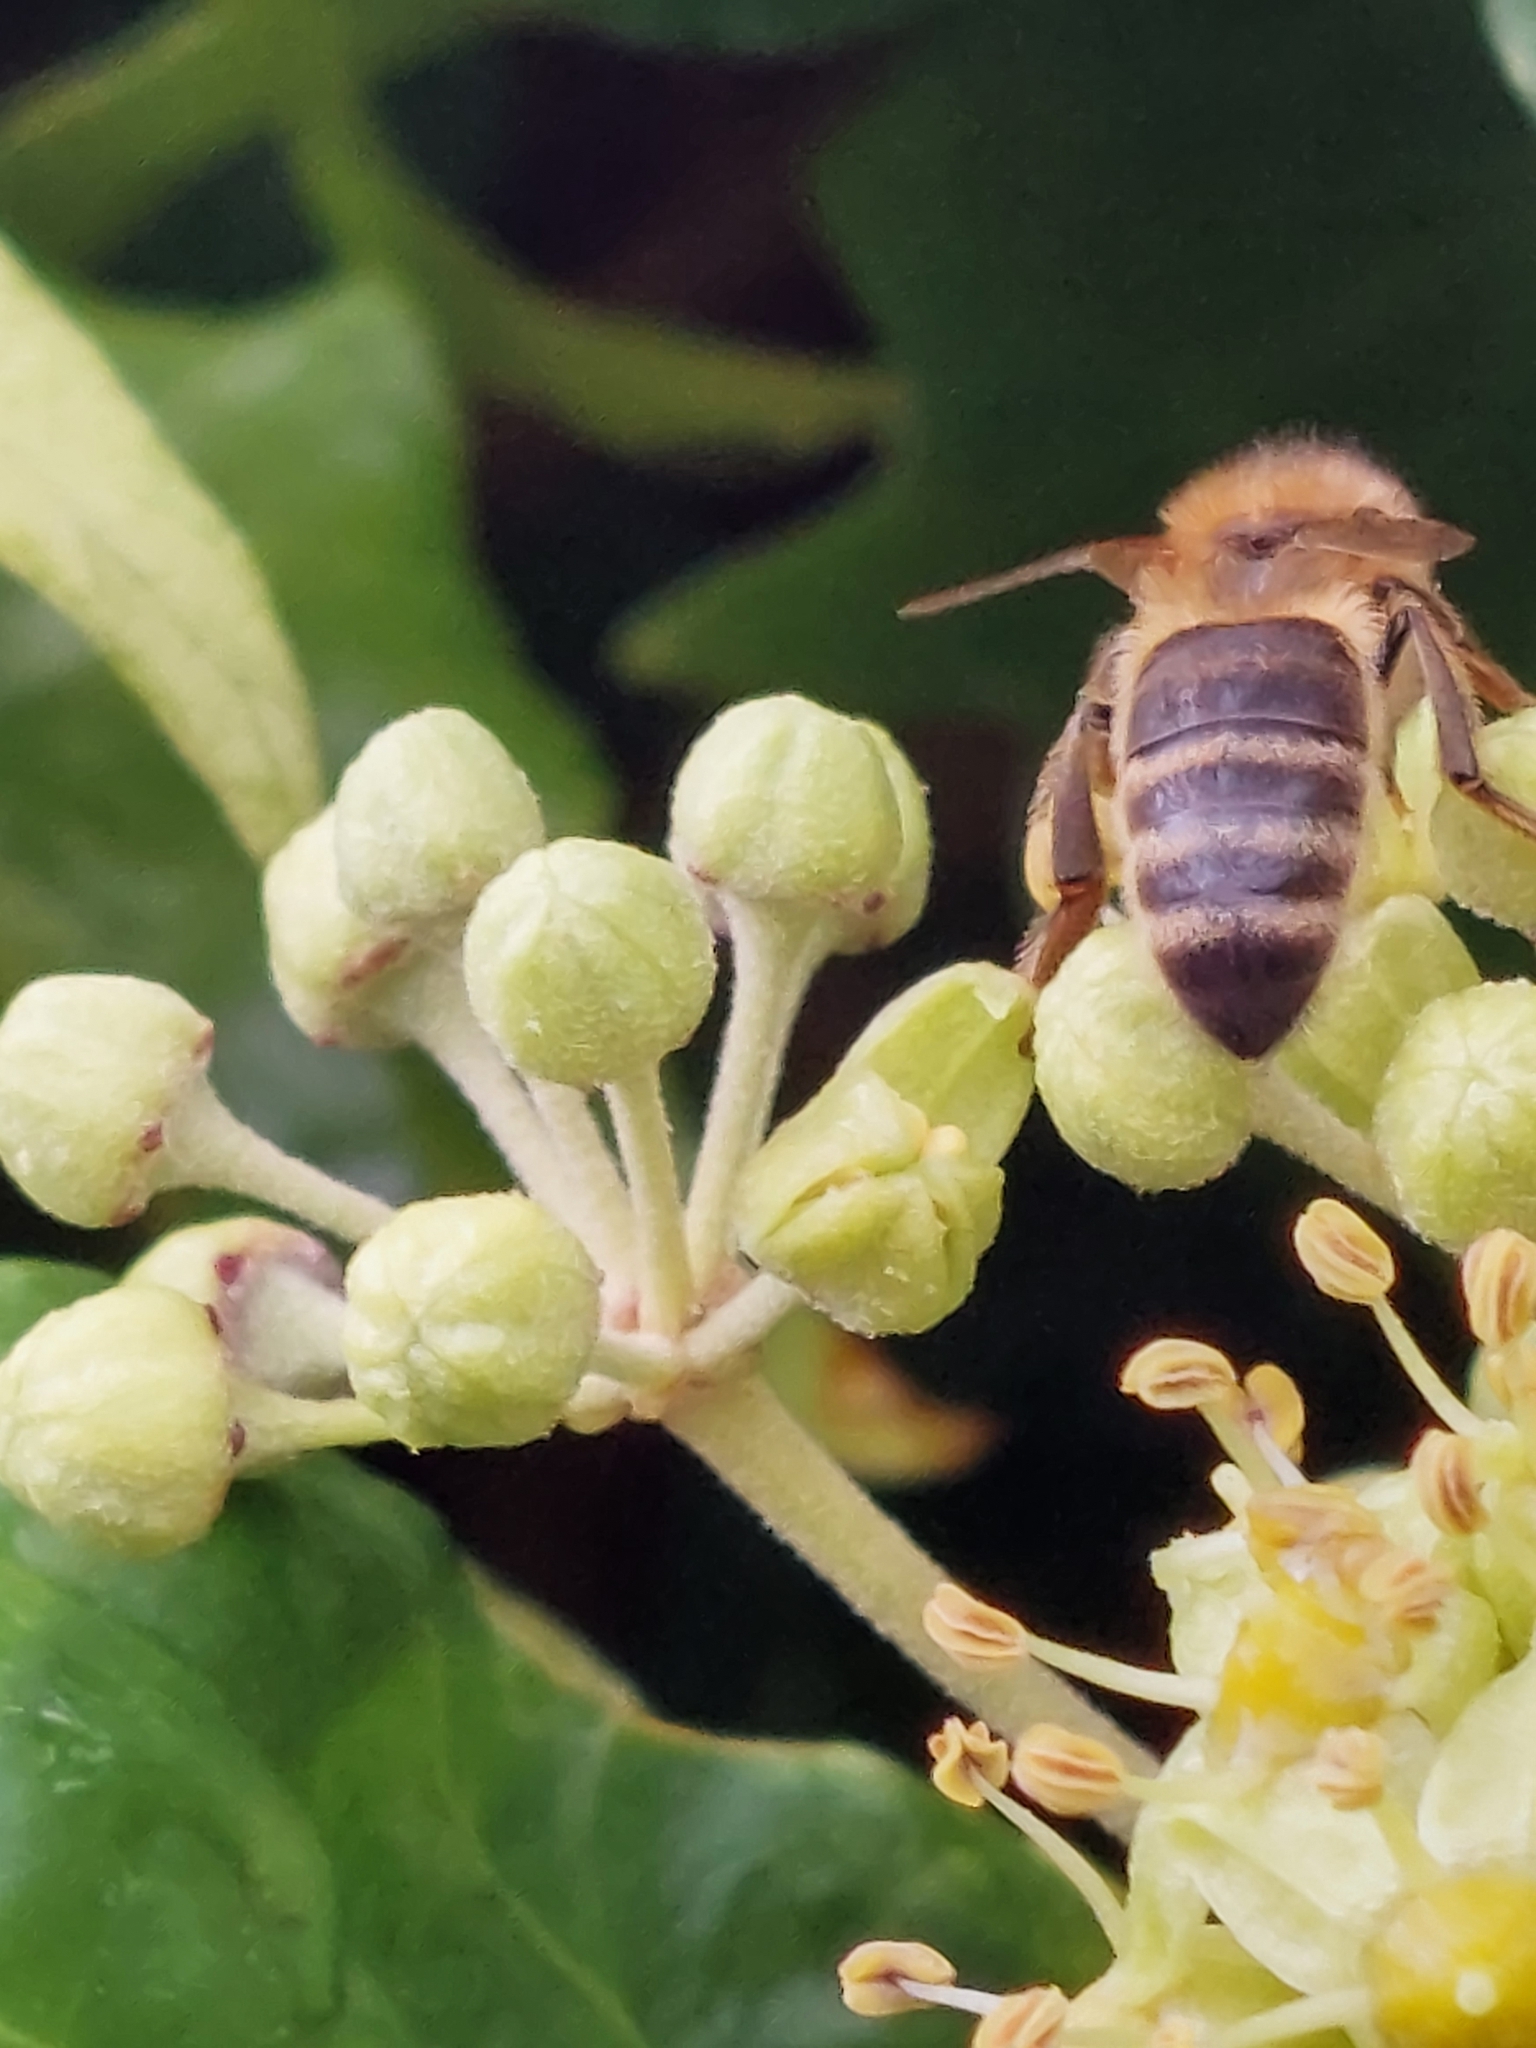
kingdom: Animalia
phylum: Arthropoda
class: Insecta
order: Hymenoptera
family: Apidae
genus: Apis
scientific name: Apis mellifera
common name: Honey bee
